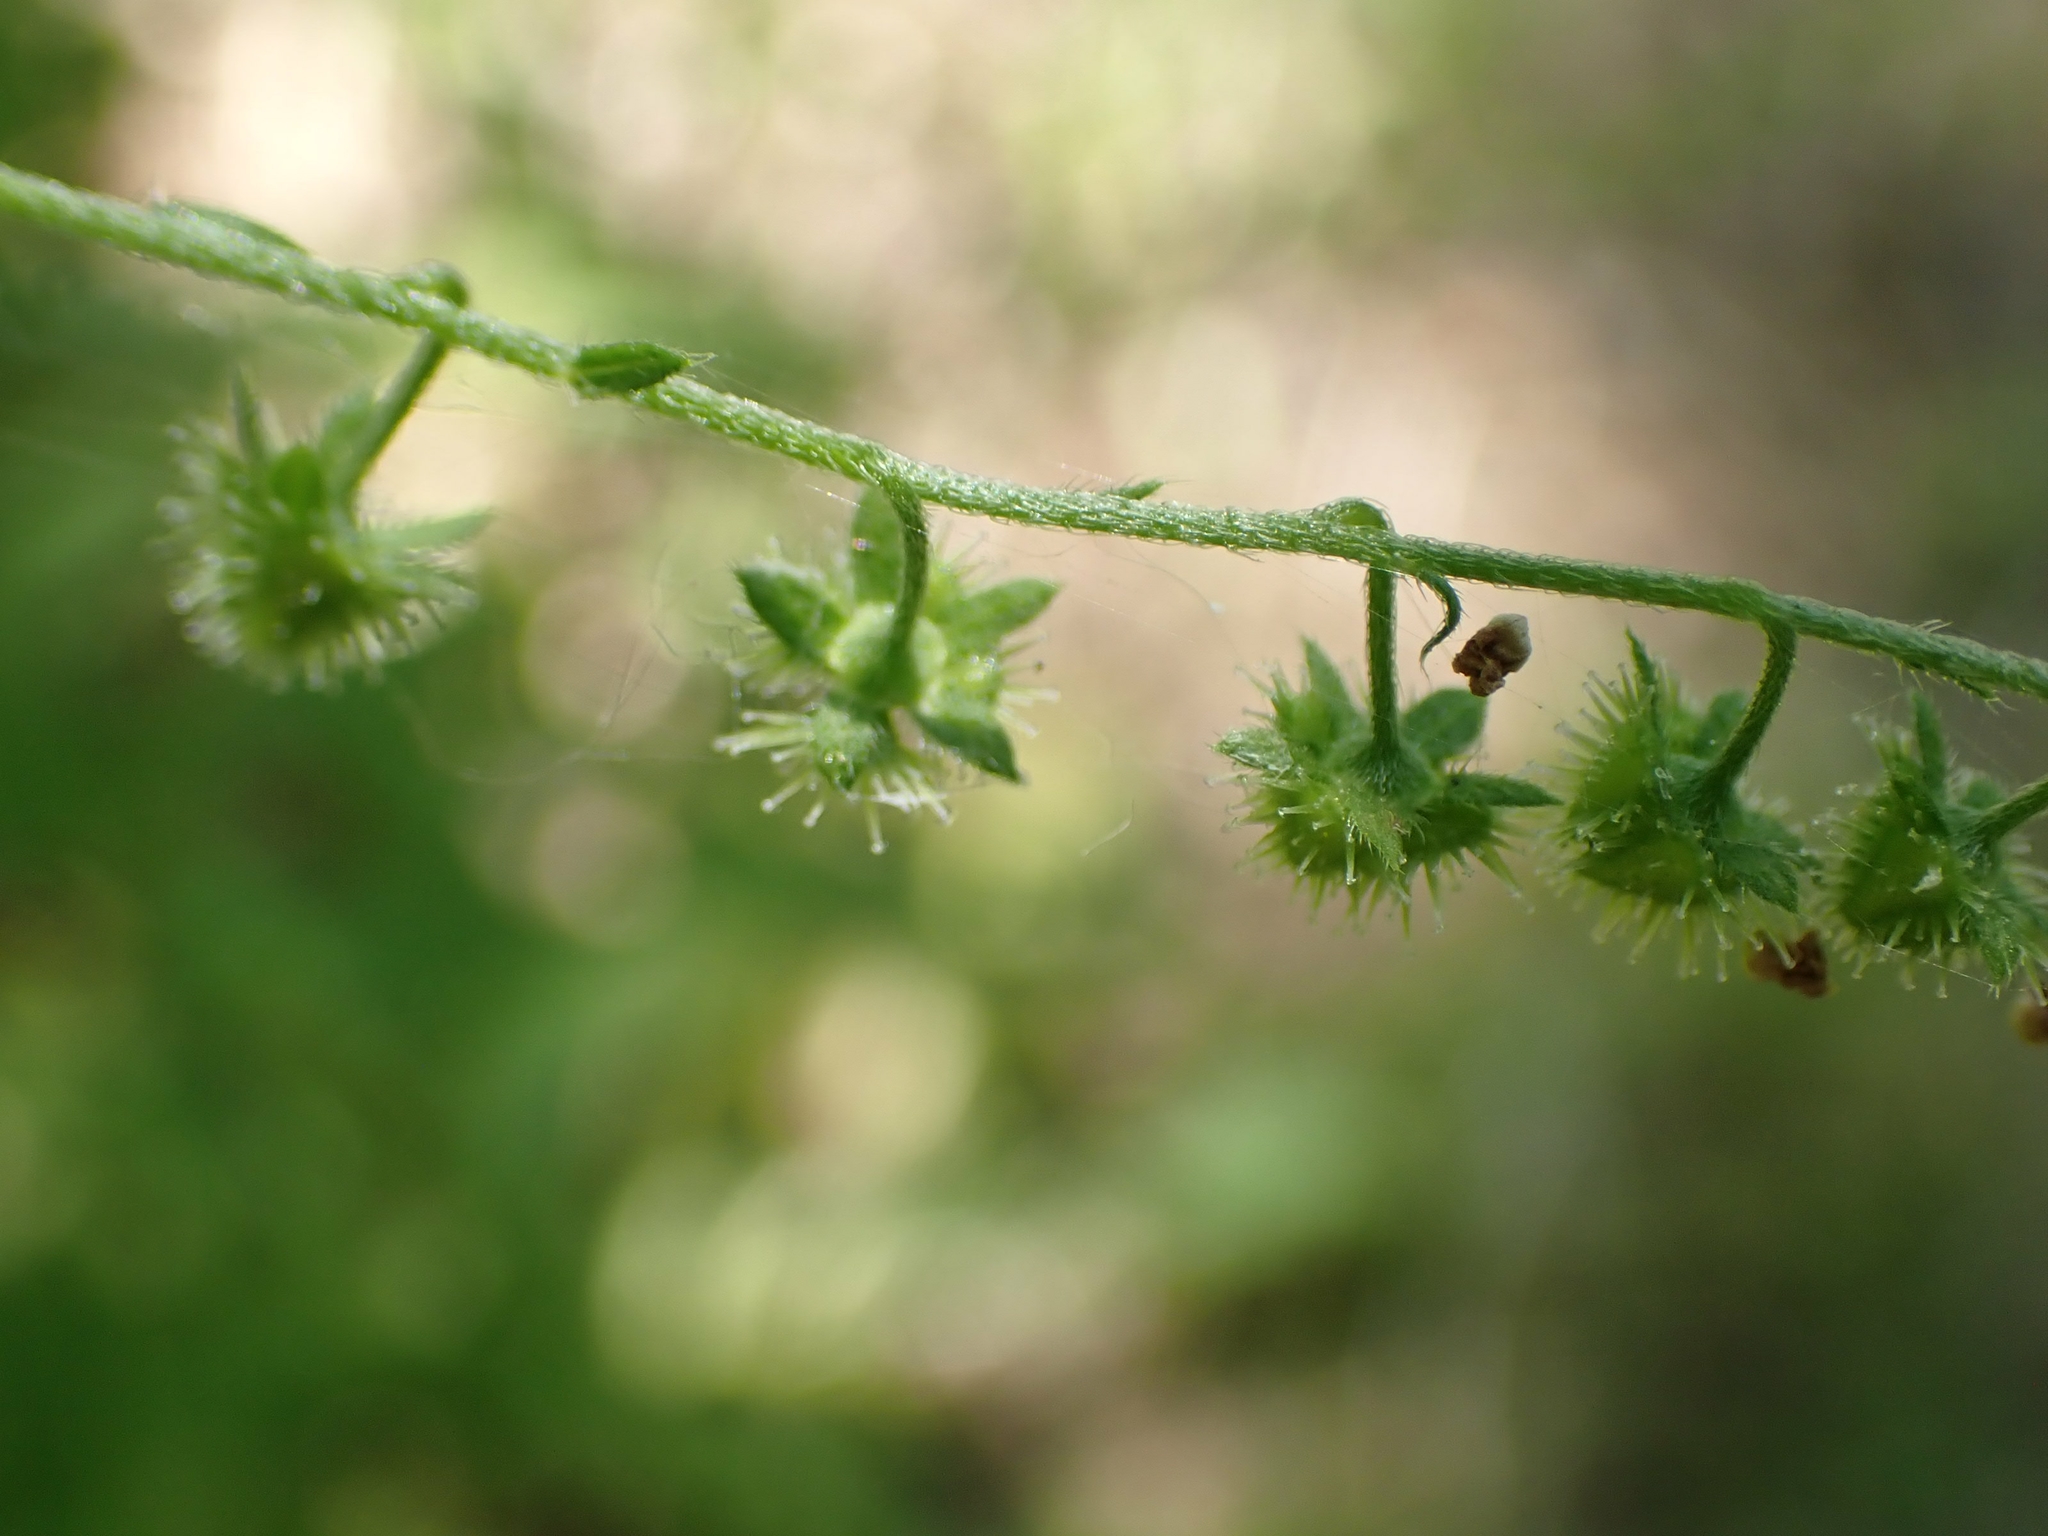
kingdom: Plantae
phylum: Tracheophyta
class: Magnoliopsida
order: Boraginales
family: Boraginaceae
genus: Hackelia
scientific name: Hackelia deflexa
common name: Nodding stickseed
